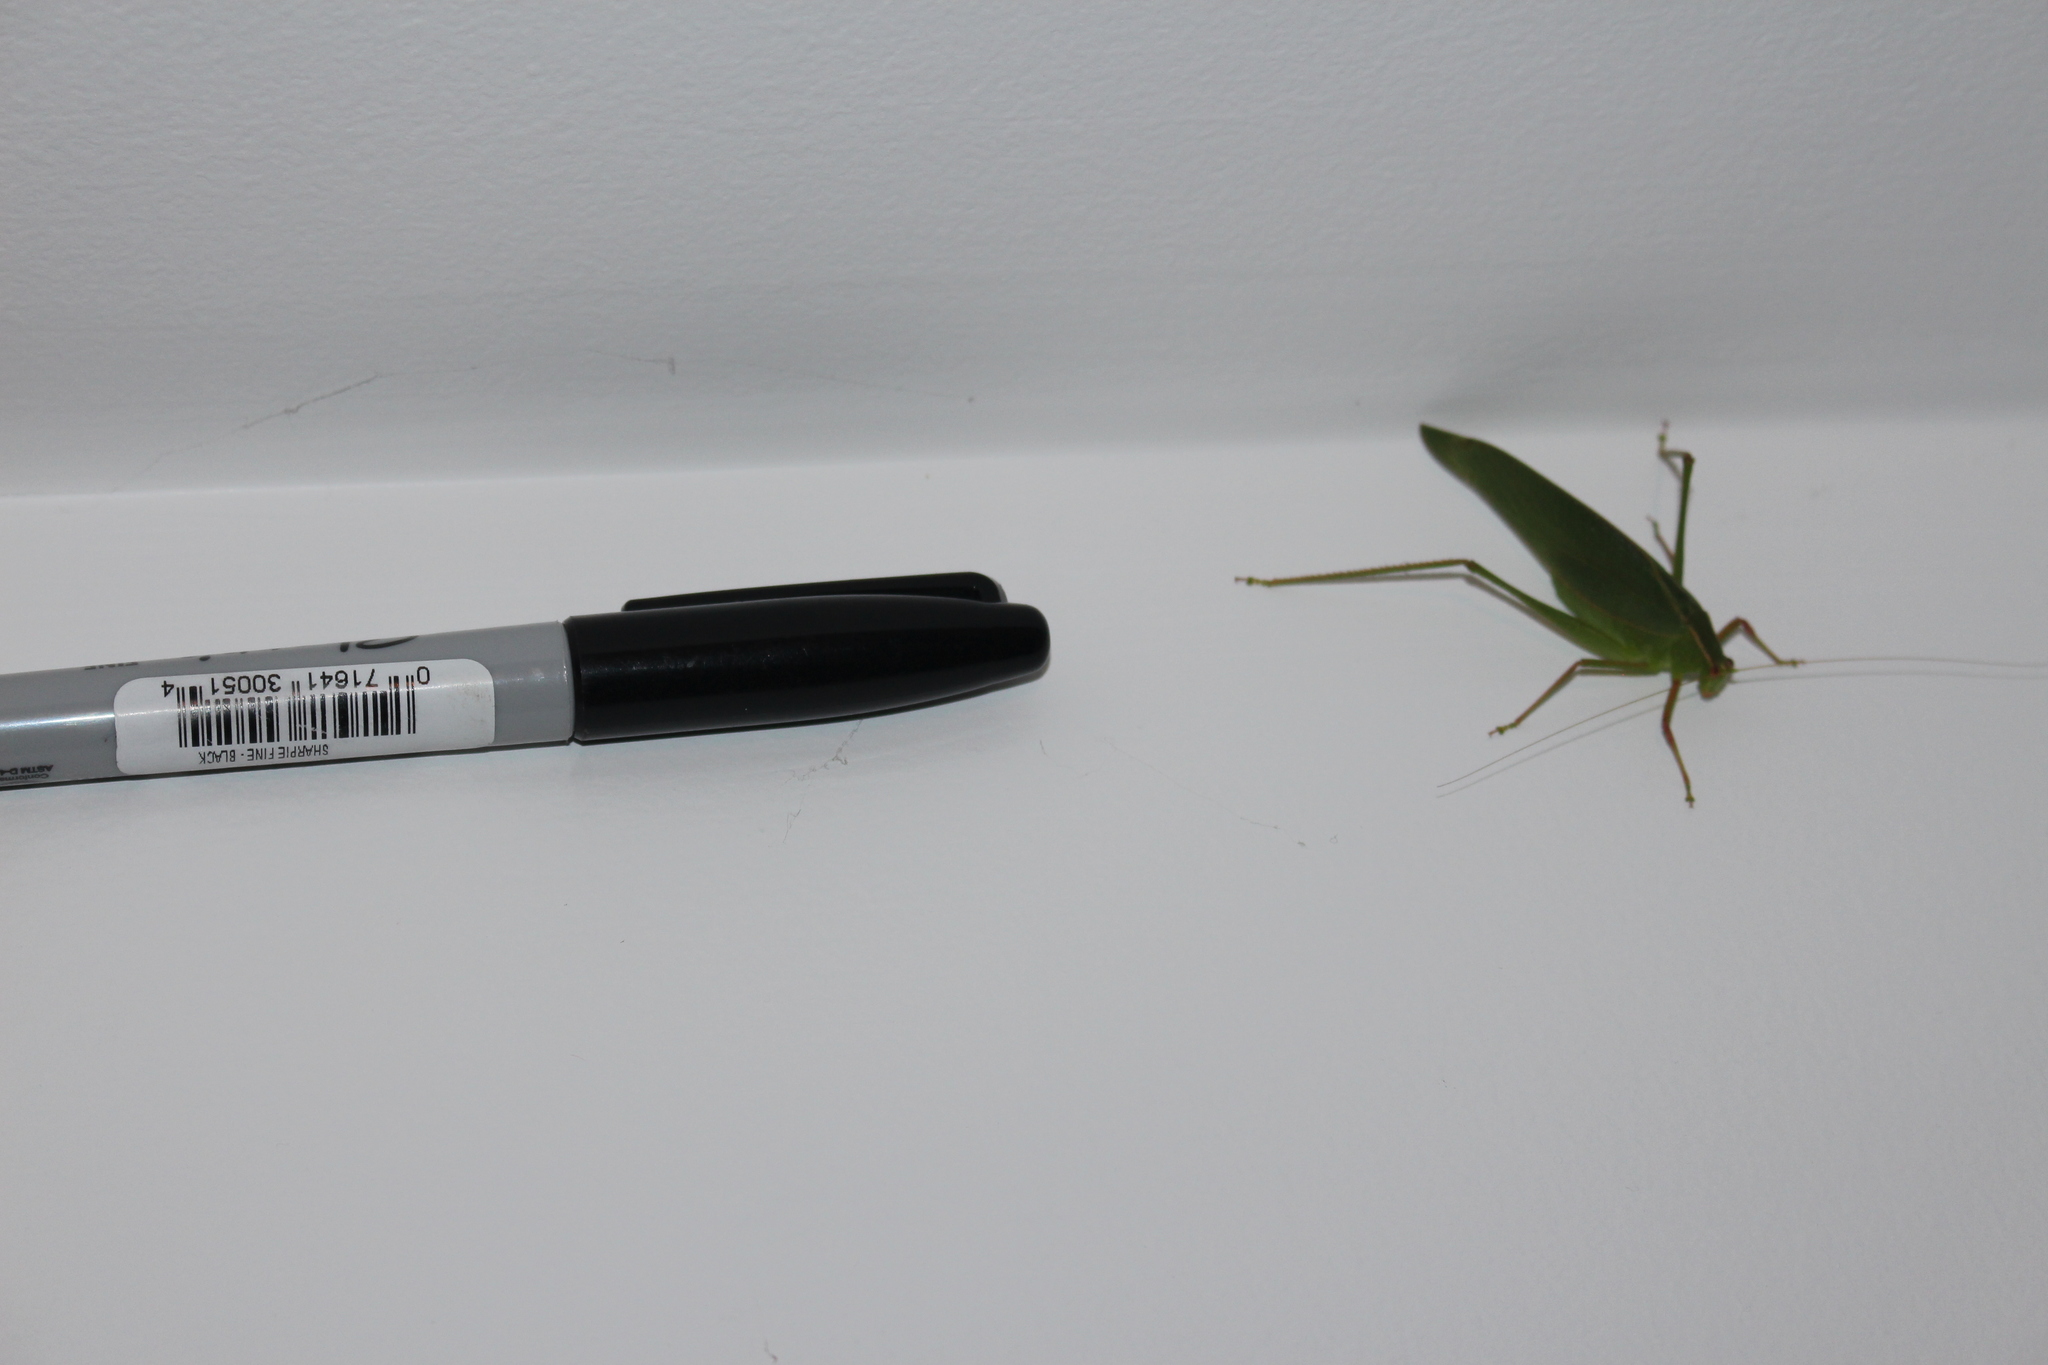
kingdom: Animalia
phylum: Arthropoda
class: Insecta
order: Orthoptera
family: Tettigoniidae
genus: Caedicia
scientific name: Caedicia simplex
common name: Common garden katydid
